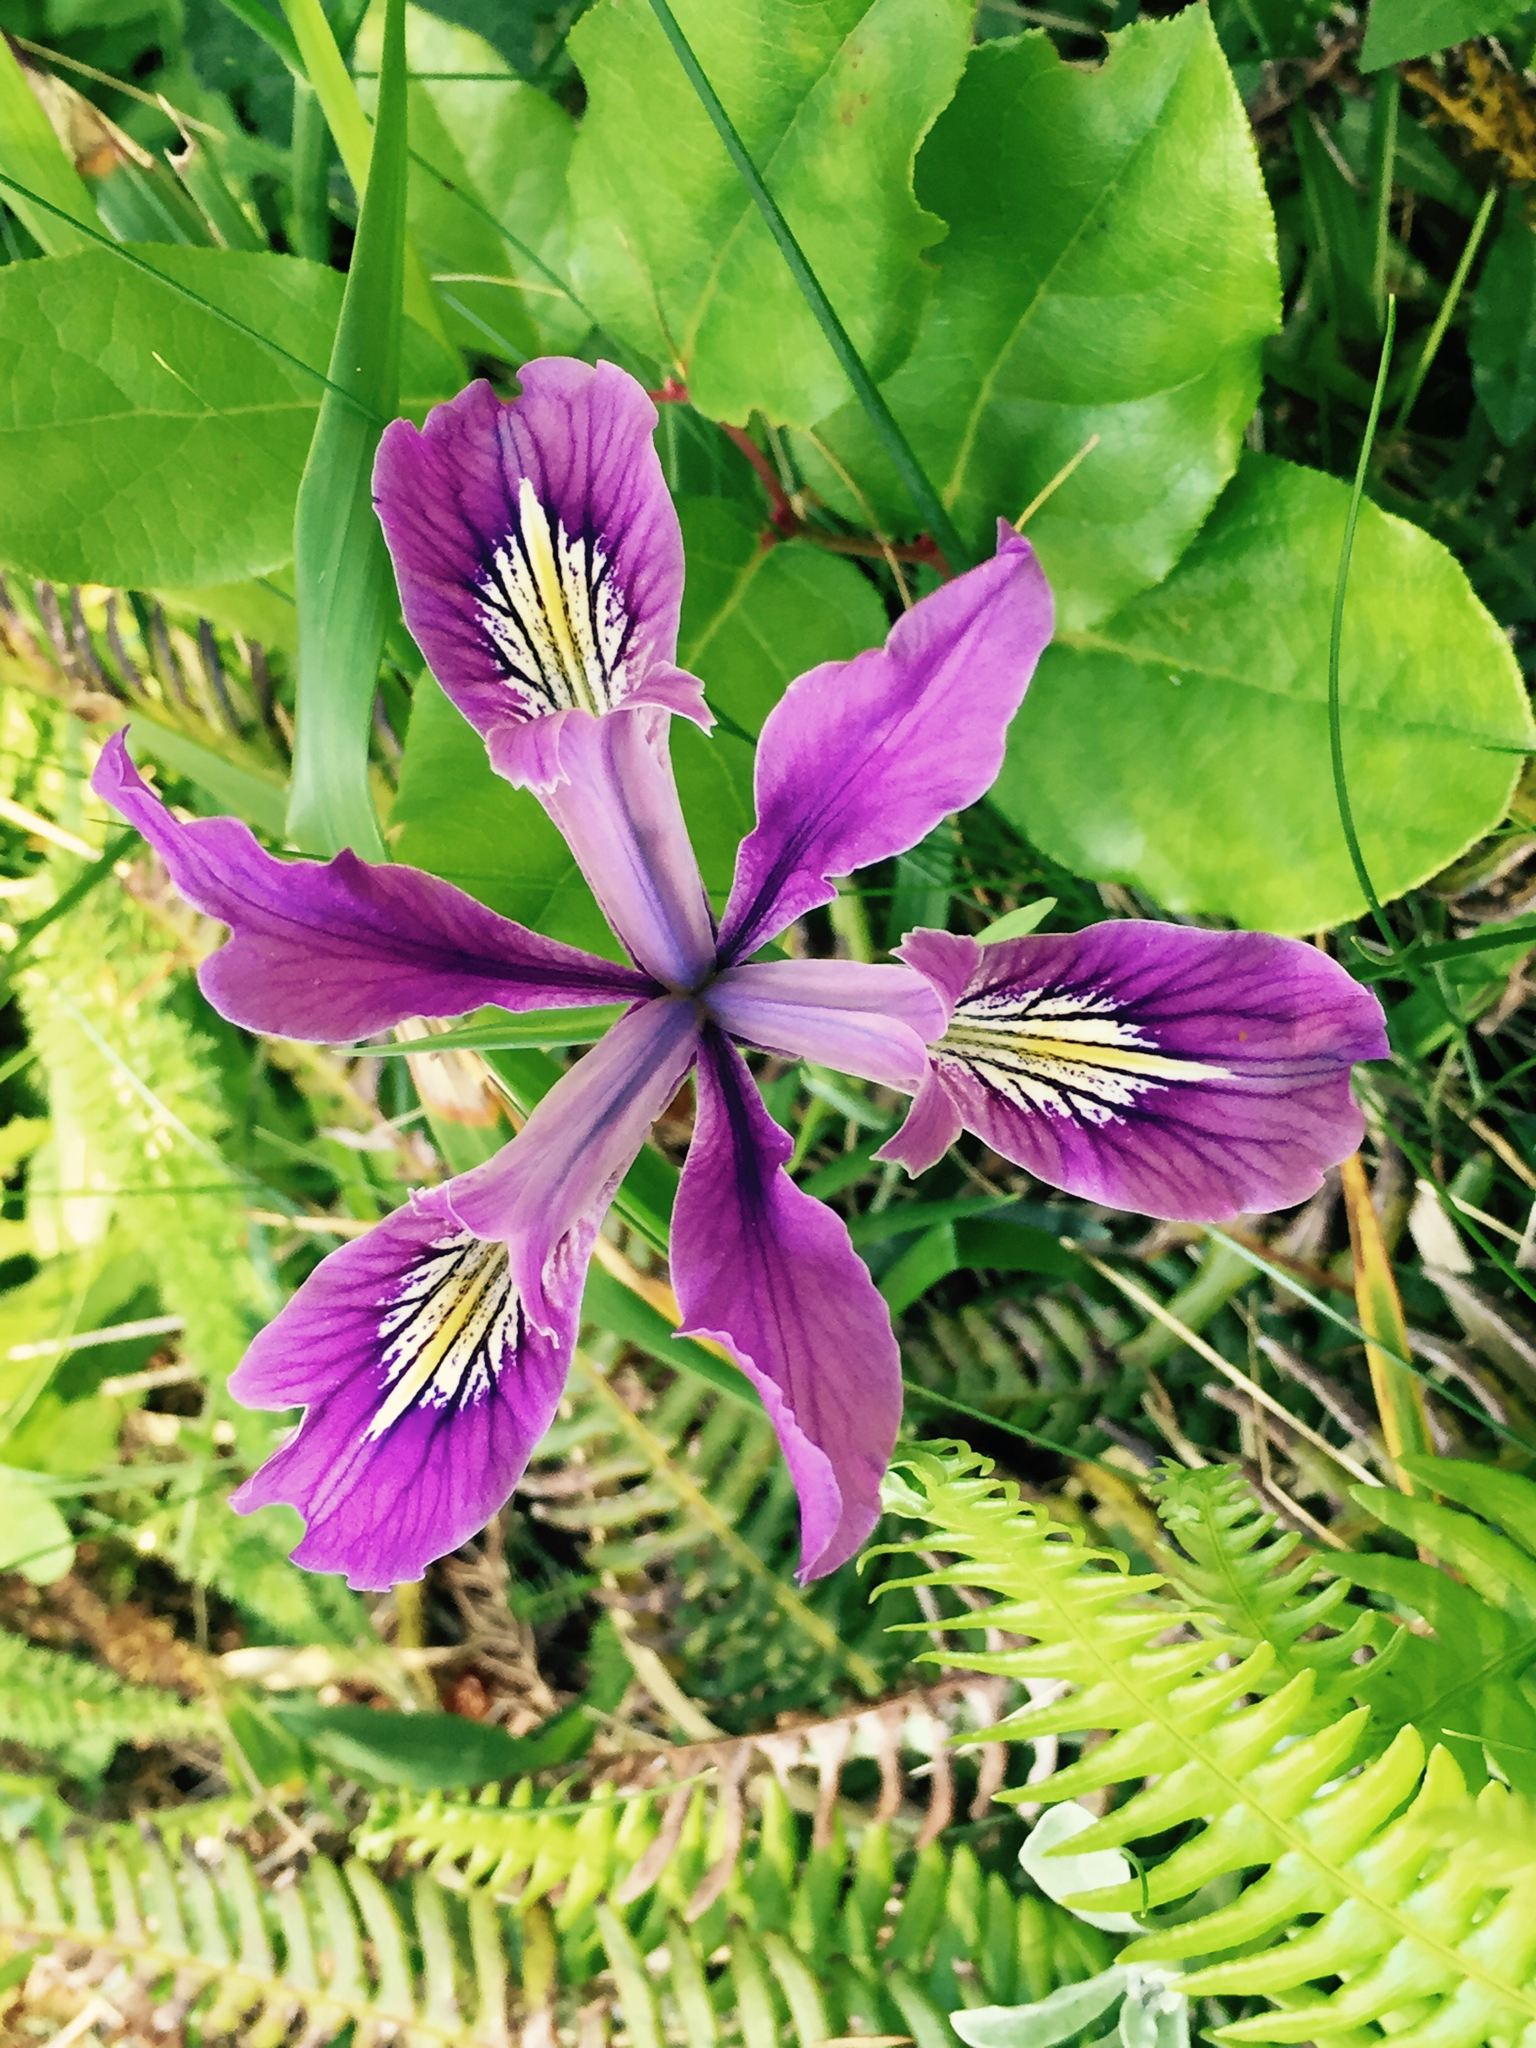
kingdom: Plantae
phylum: Tracheophyta
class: Liliopsida
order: Asparagales
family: Iridaceae
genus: Iris
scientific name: Iris tenax
